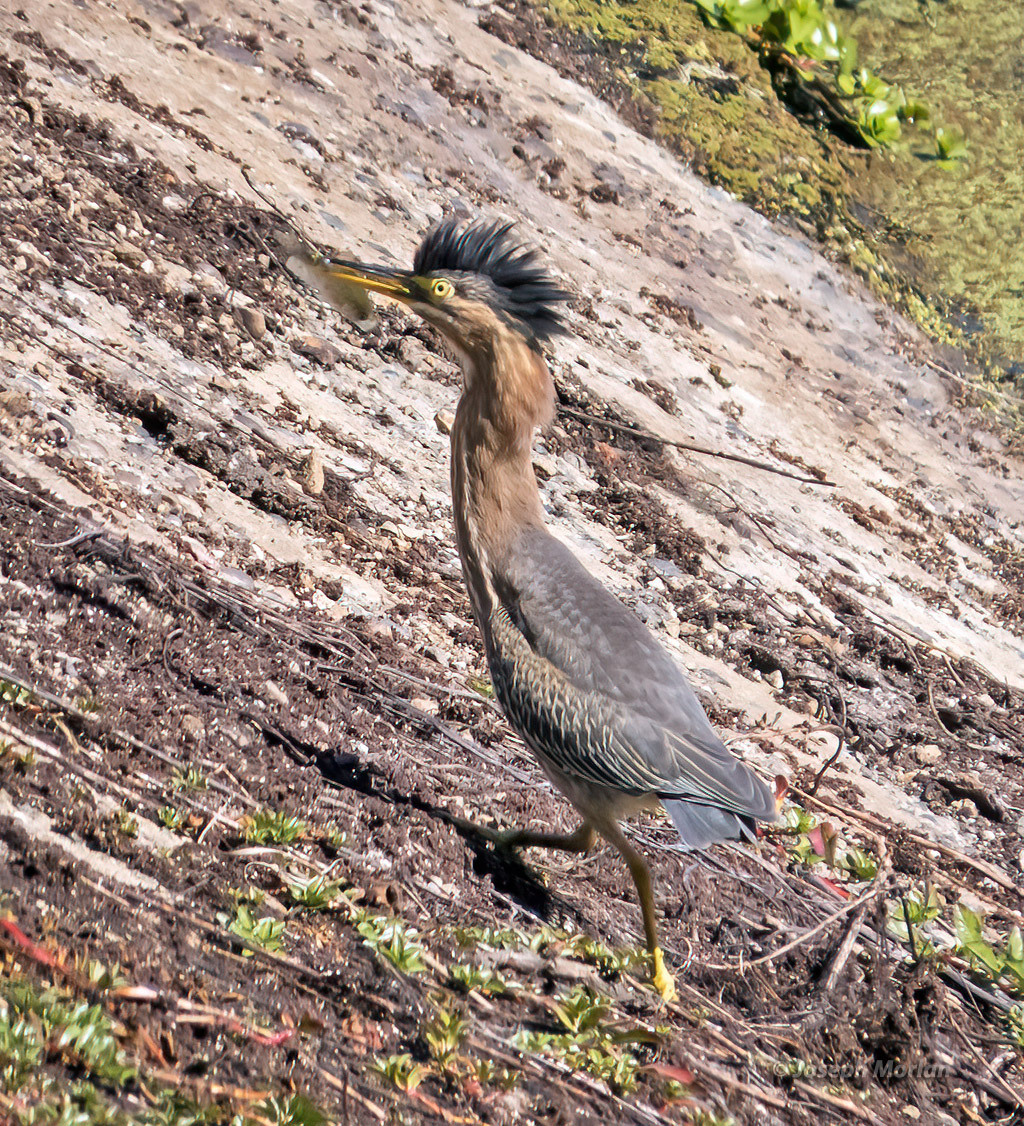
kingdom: Animalia
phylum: Chordata
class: Aves
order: Pelecaniformes
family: Ardeidae
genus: Butorides
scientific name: Butorides virescens
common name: Green heron
